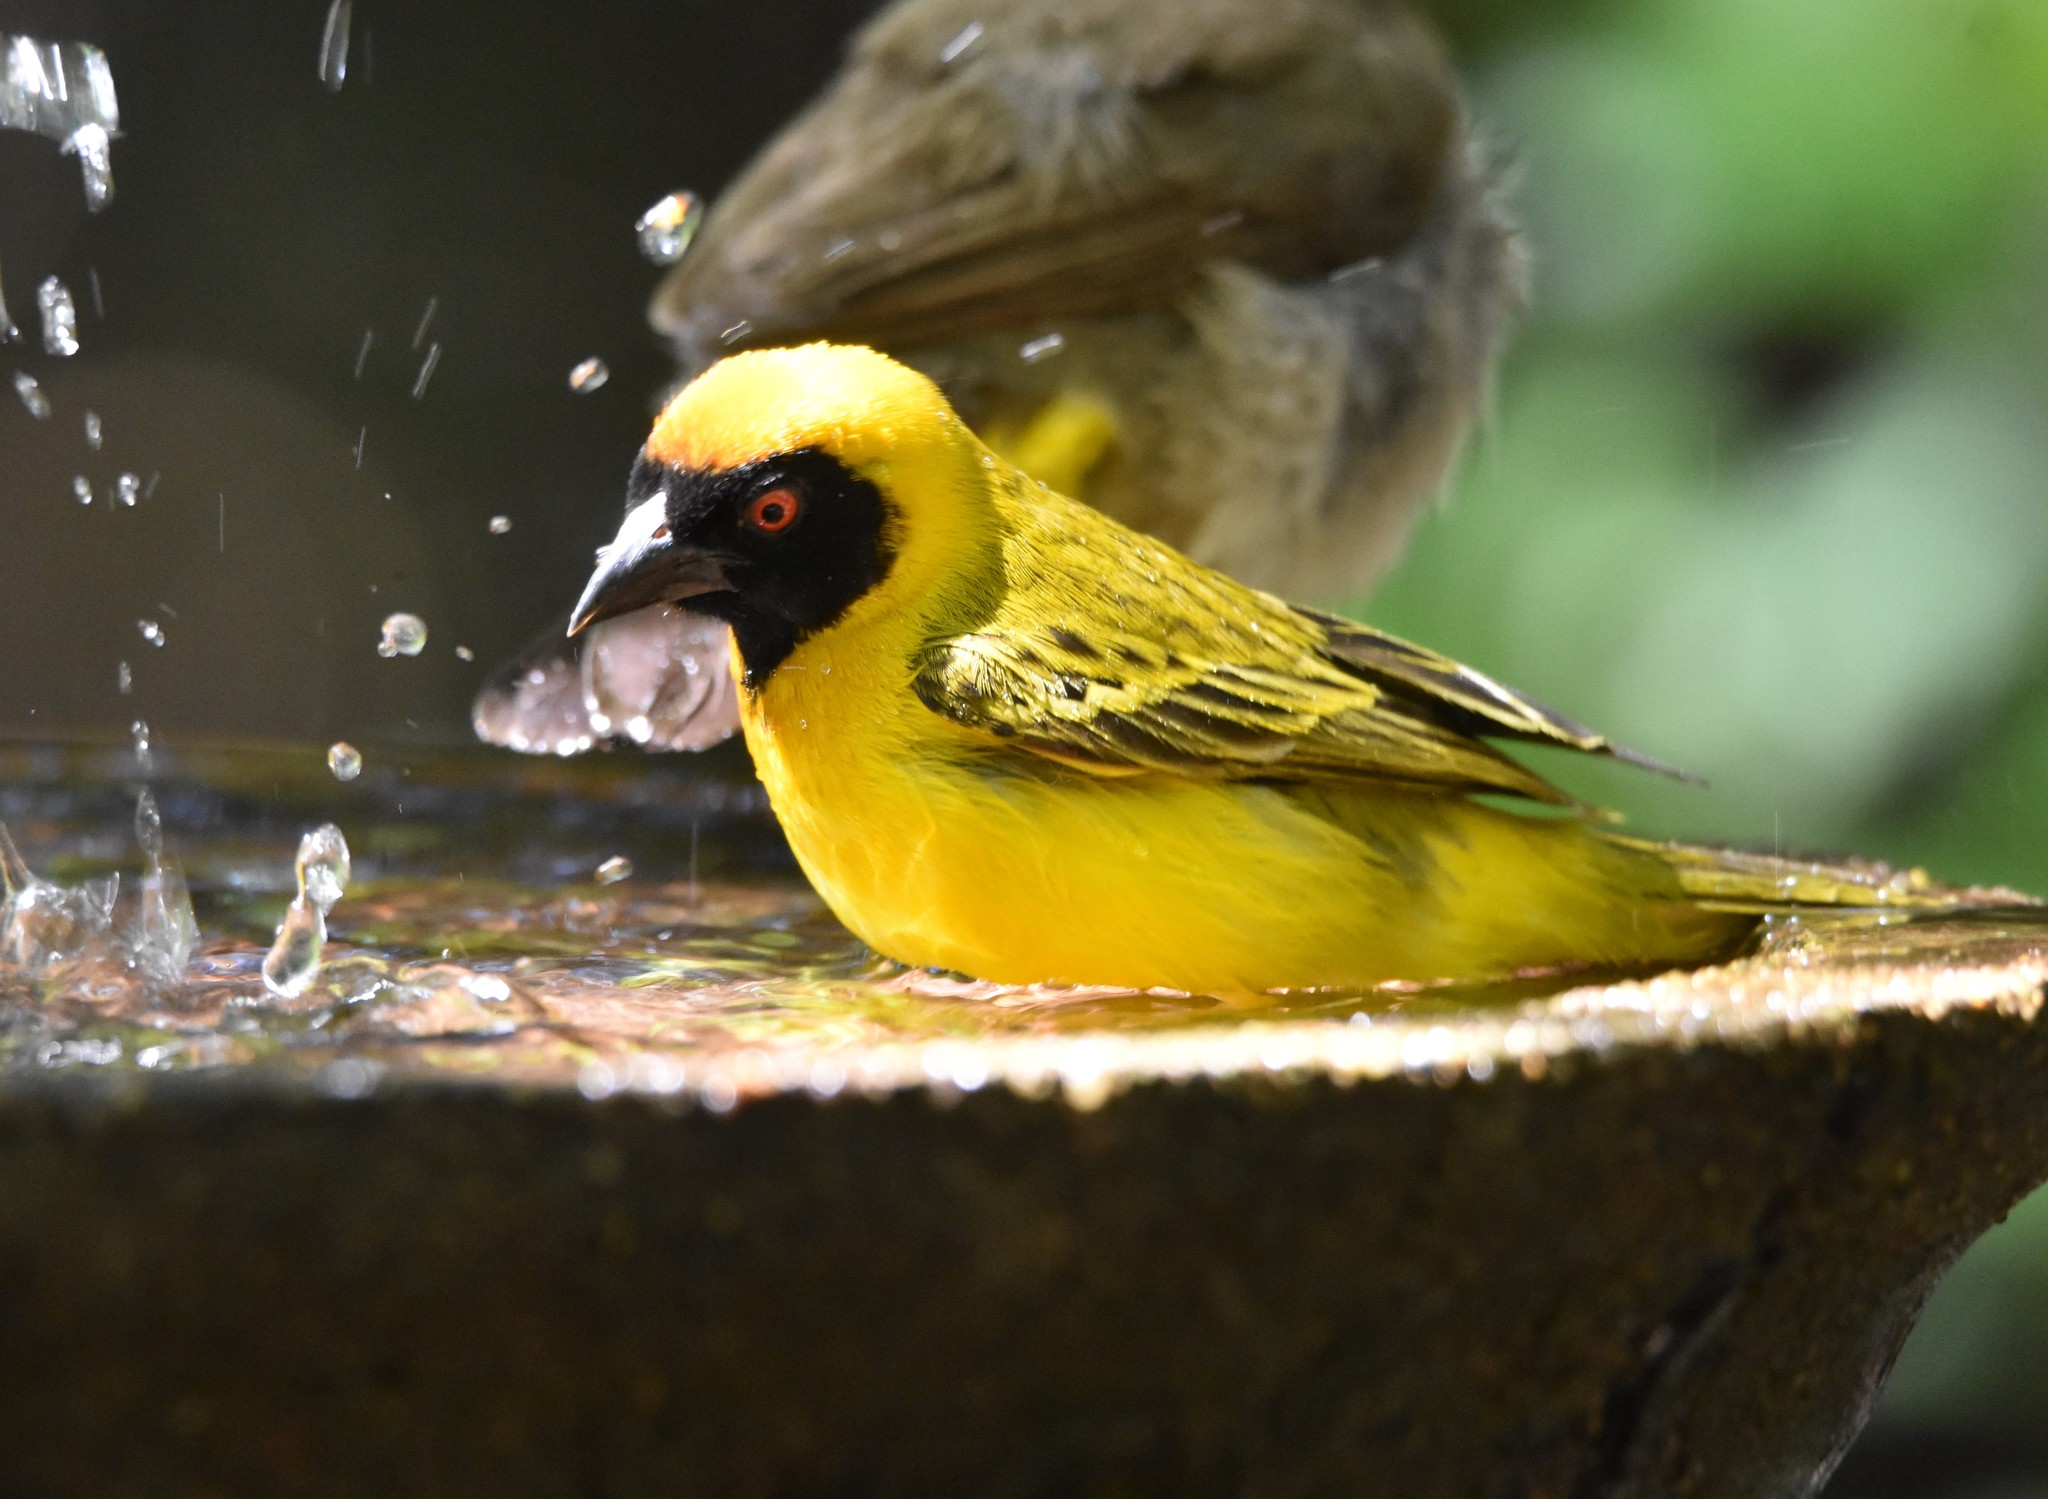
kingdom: Animalia
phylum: Chordata
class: Aves
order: Passeriformes
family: Ploceidae
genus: Ploceus
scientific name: Ploceus velatus
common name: Southern masked weaver
